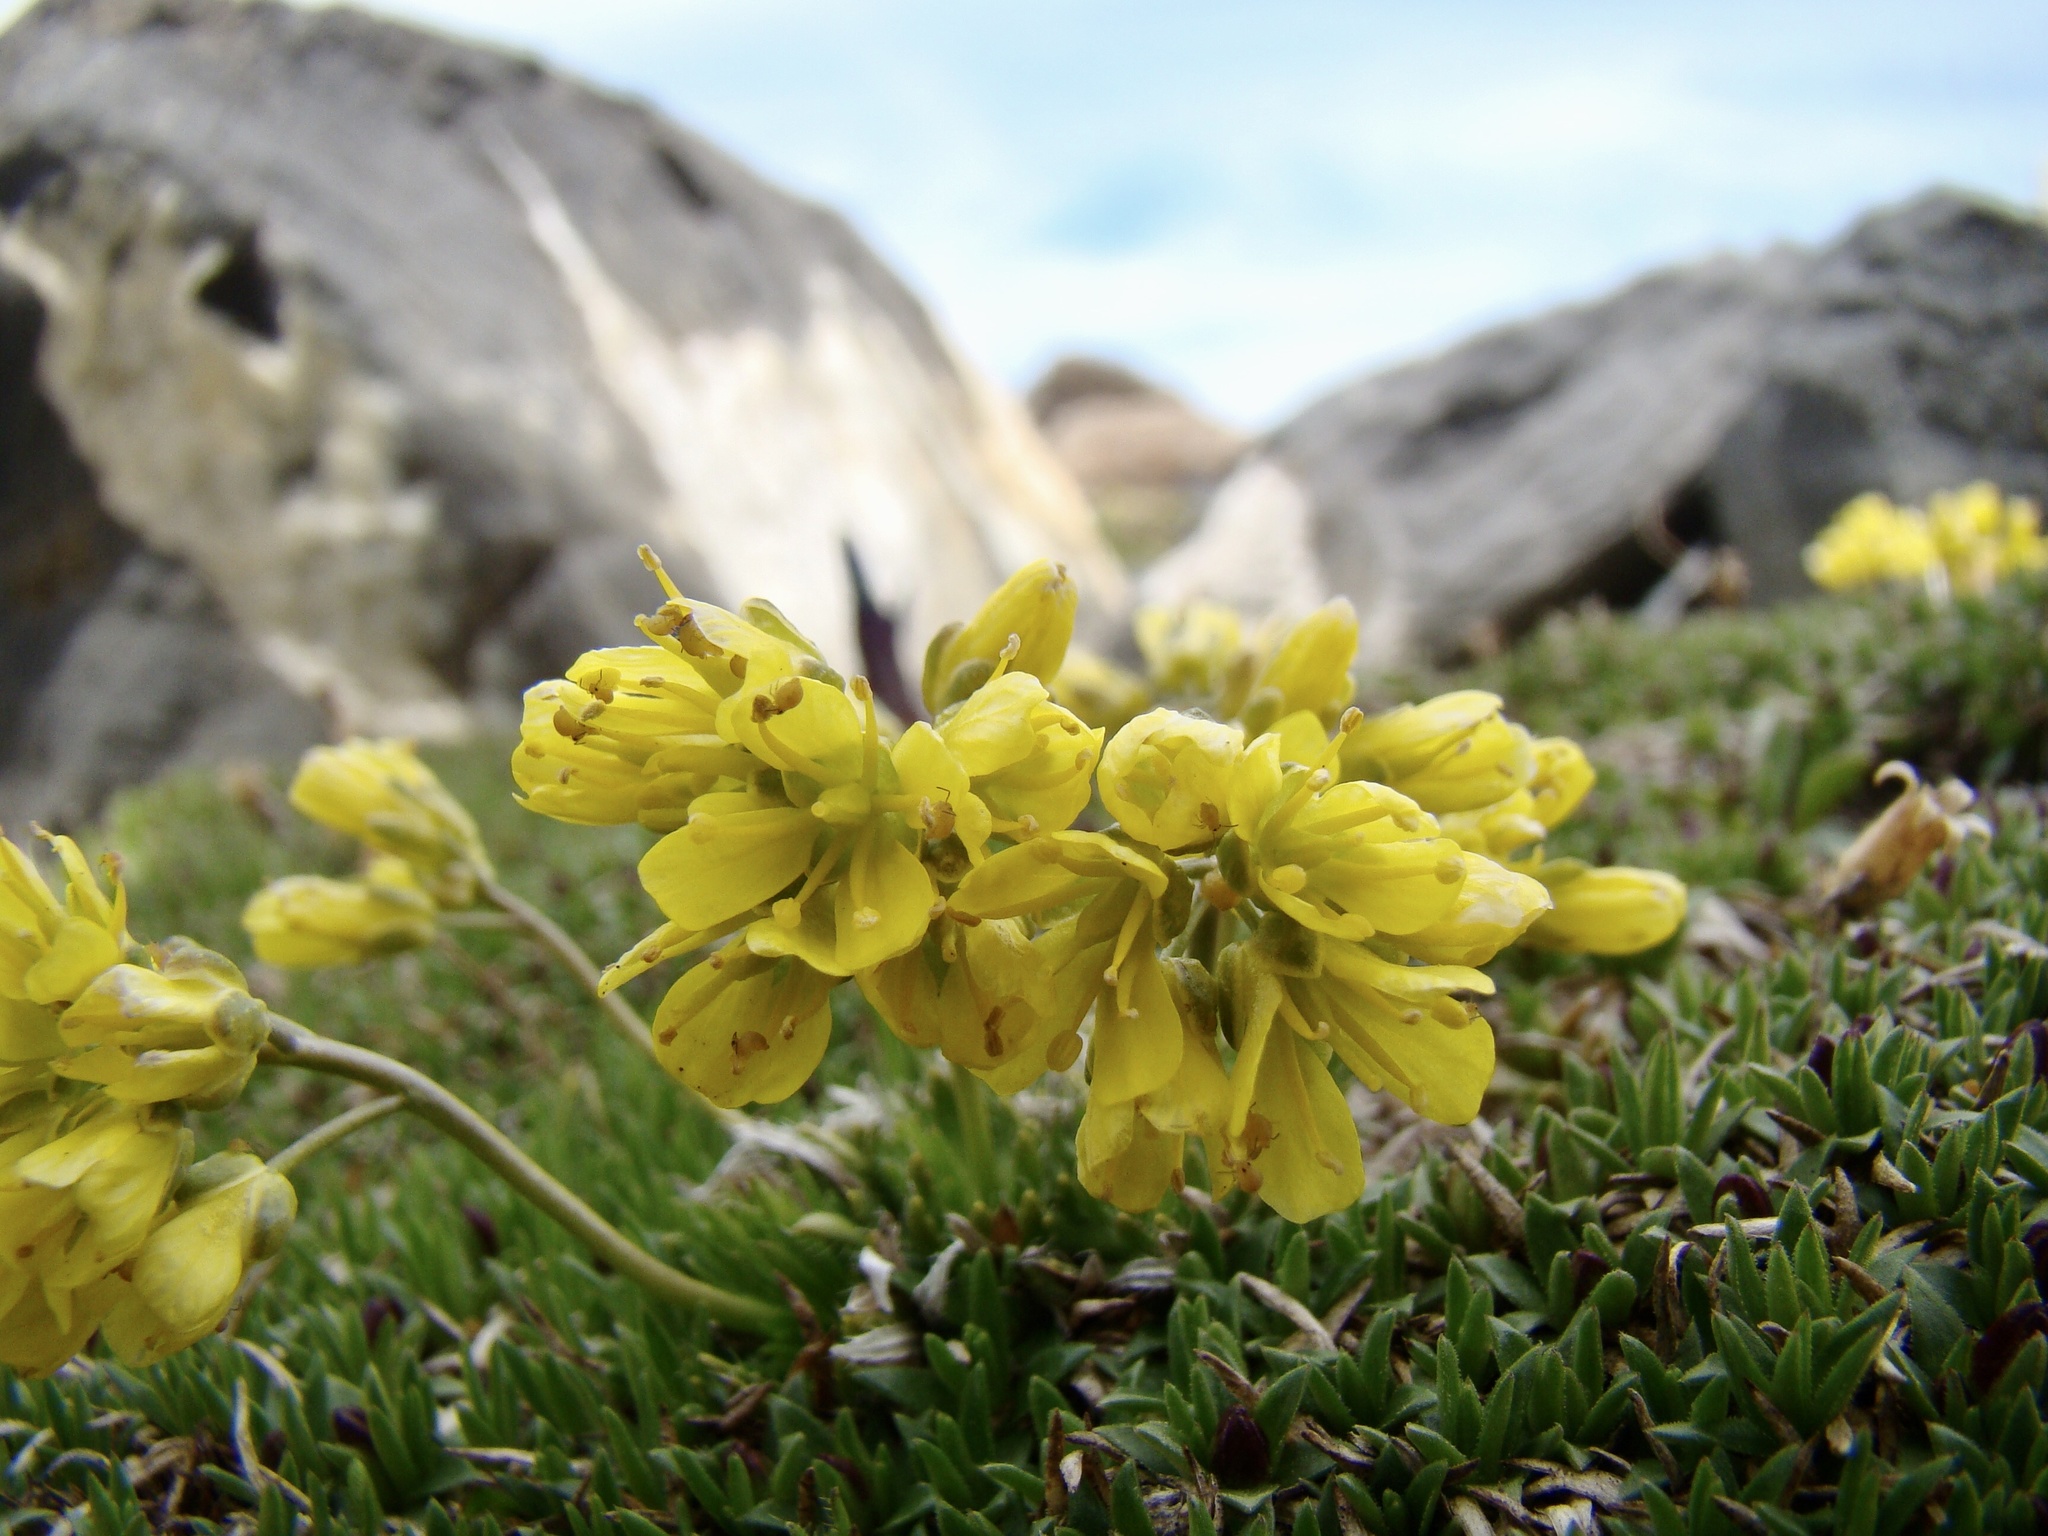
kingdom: Plantae
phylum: Tracheophyta
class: Magnoliopsida
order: Brassicales
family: Brassicaceae
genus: Draba
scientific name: Draba aizoides
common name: Yellow whitlowgrass
